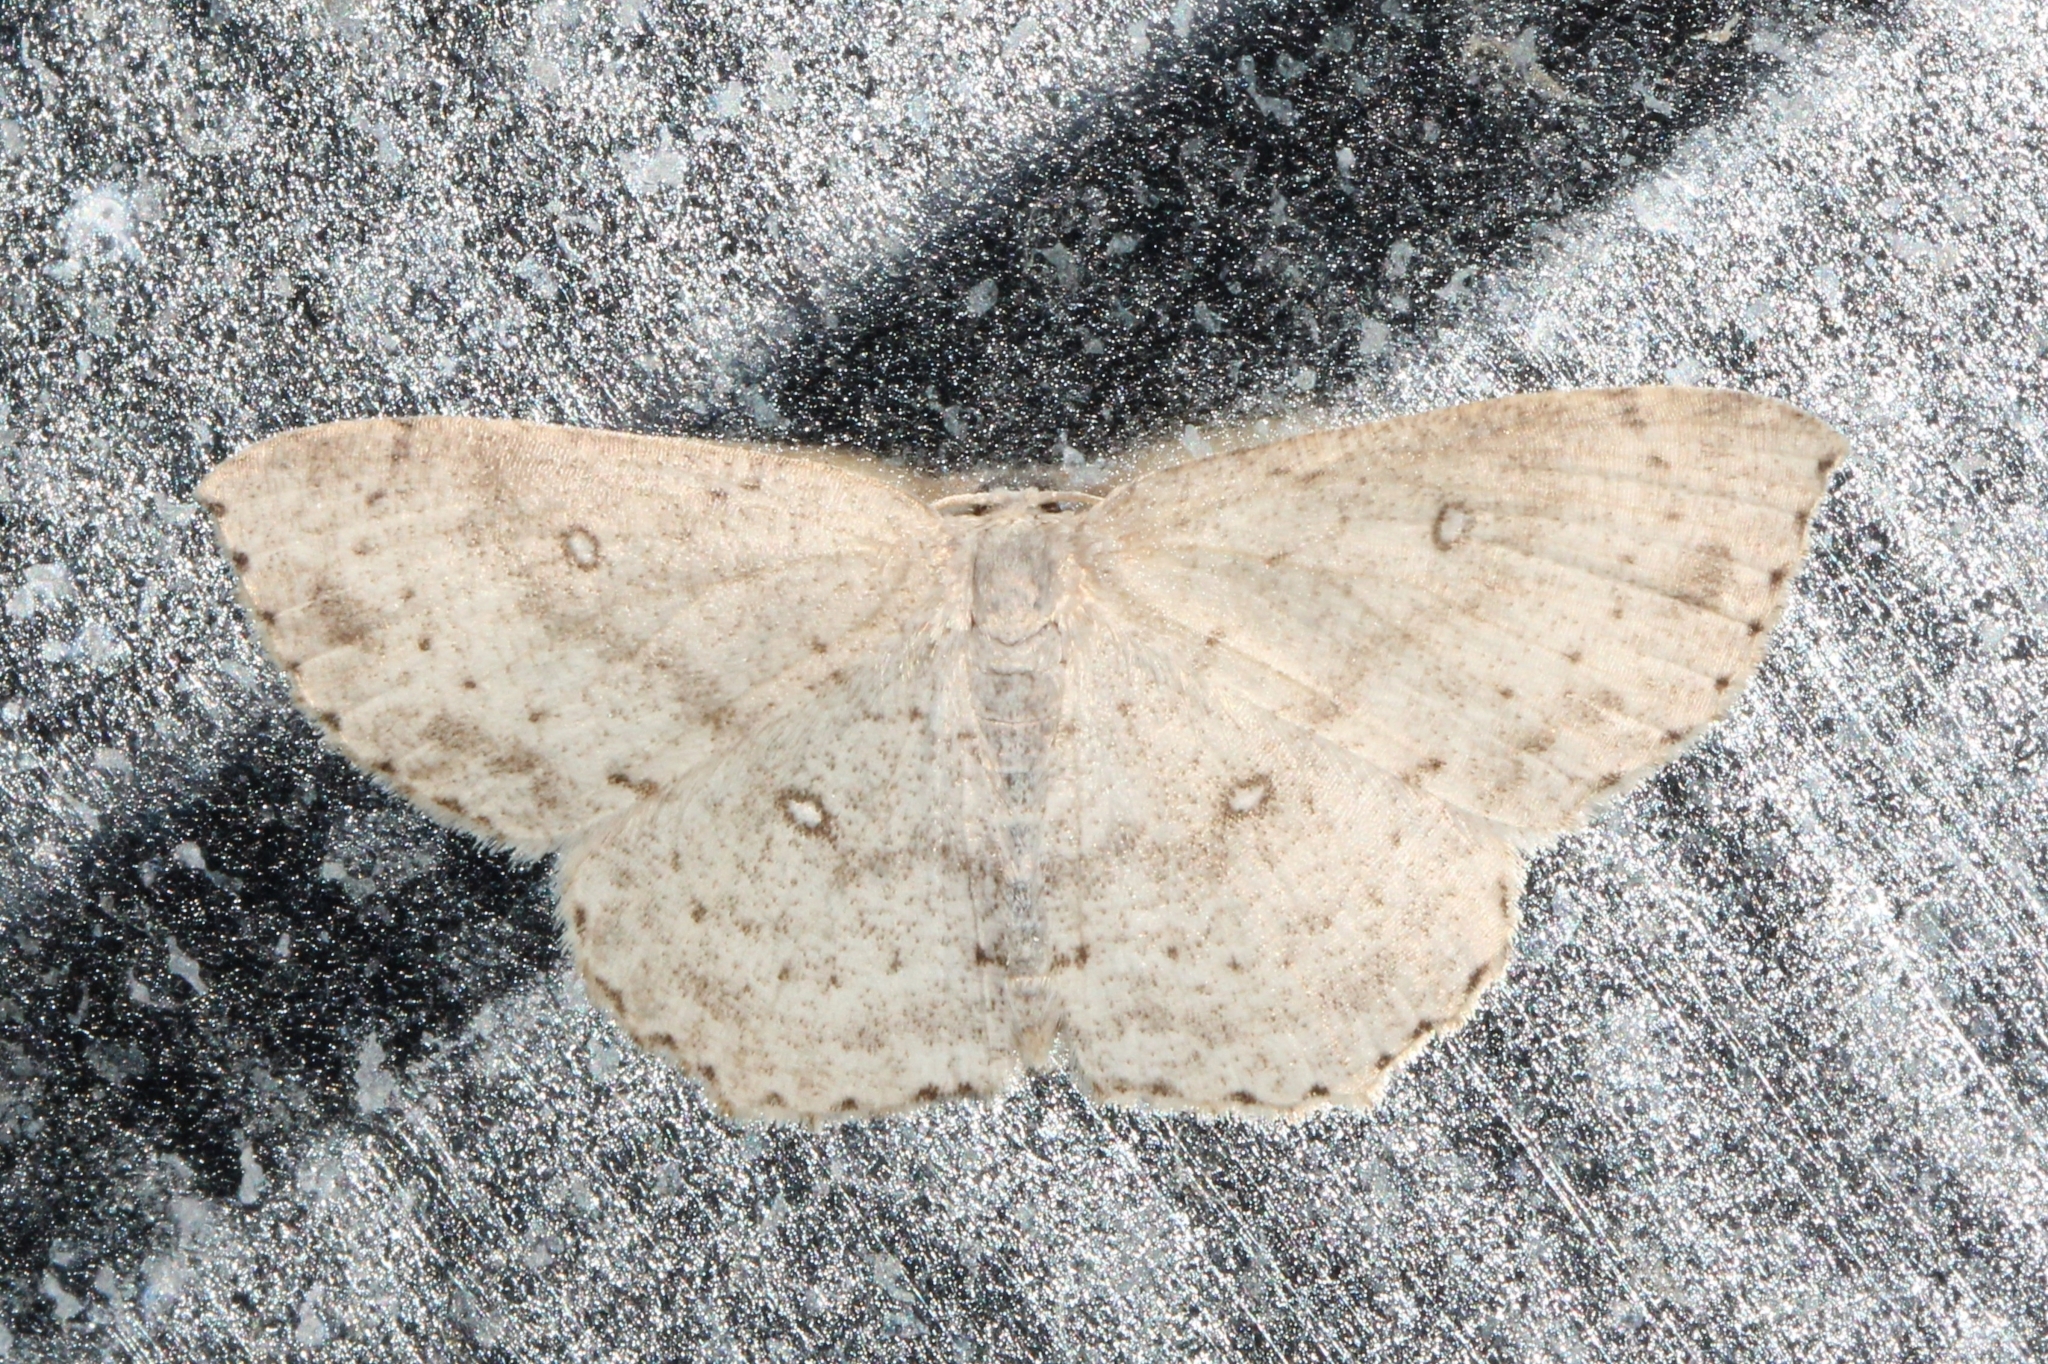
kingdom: Animalia
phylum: Arthropoda
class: Insecta
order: Lepidoptera
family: Geometridae
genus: Cyclophora
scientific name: Cyclophora pendulinaria
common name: Sweet fern geometer
